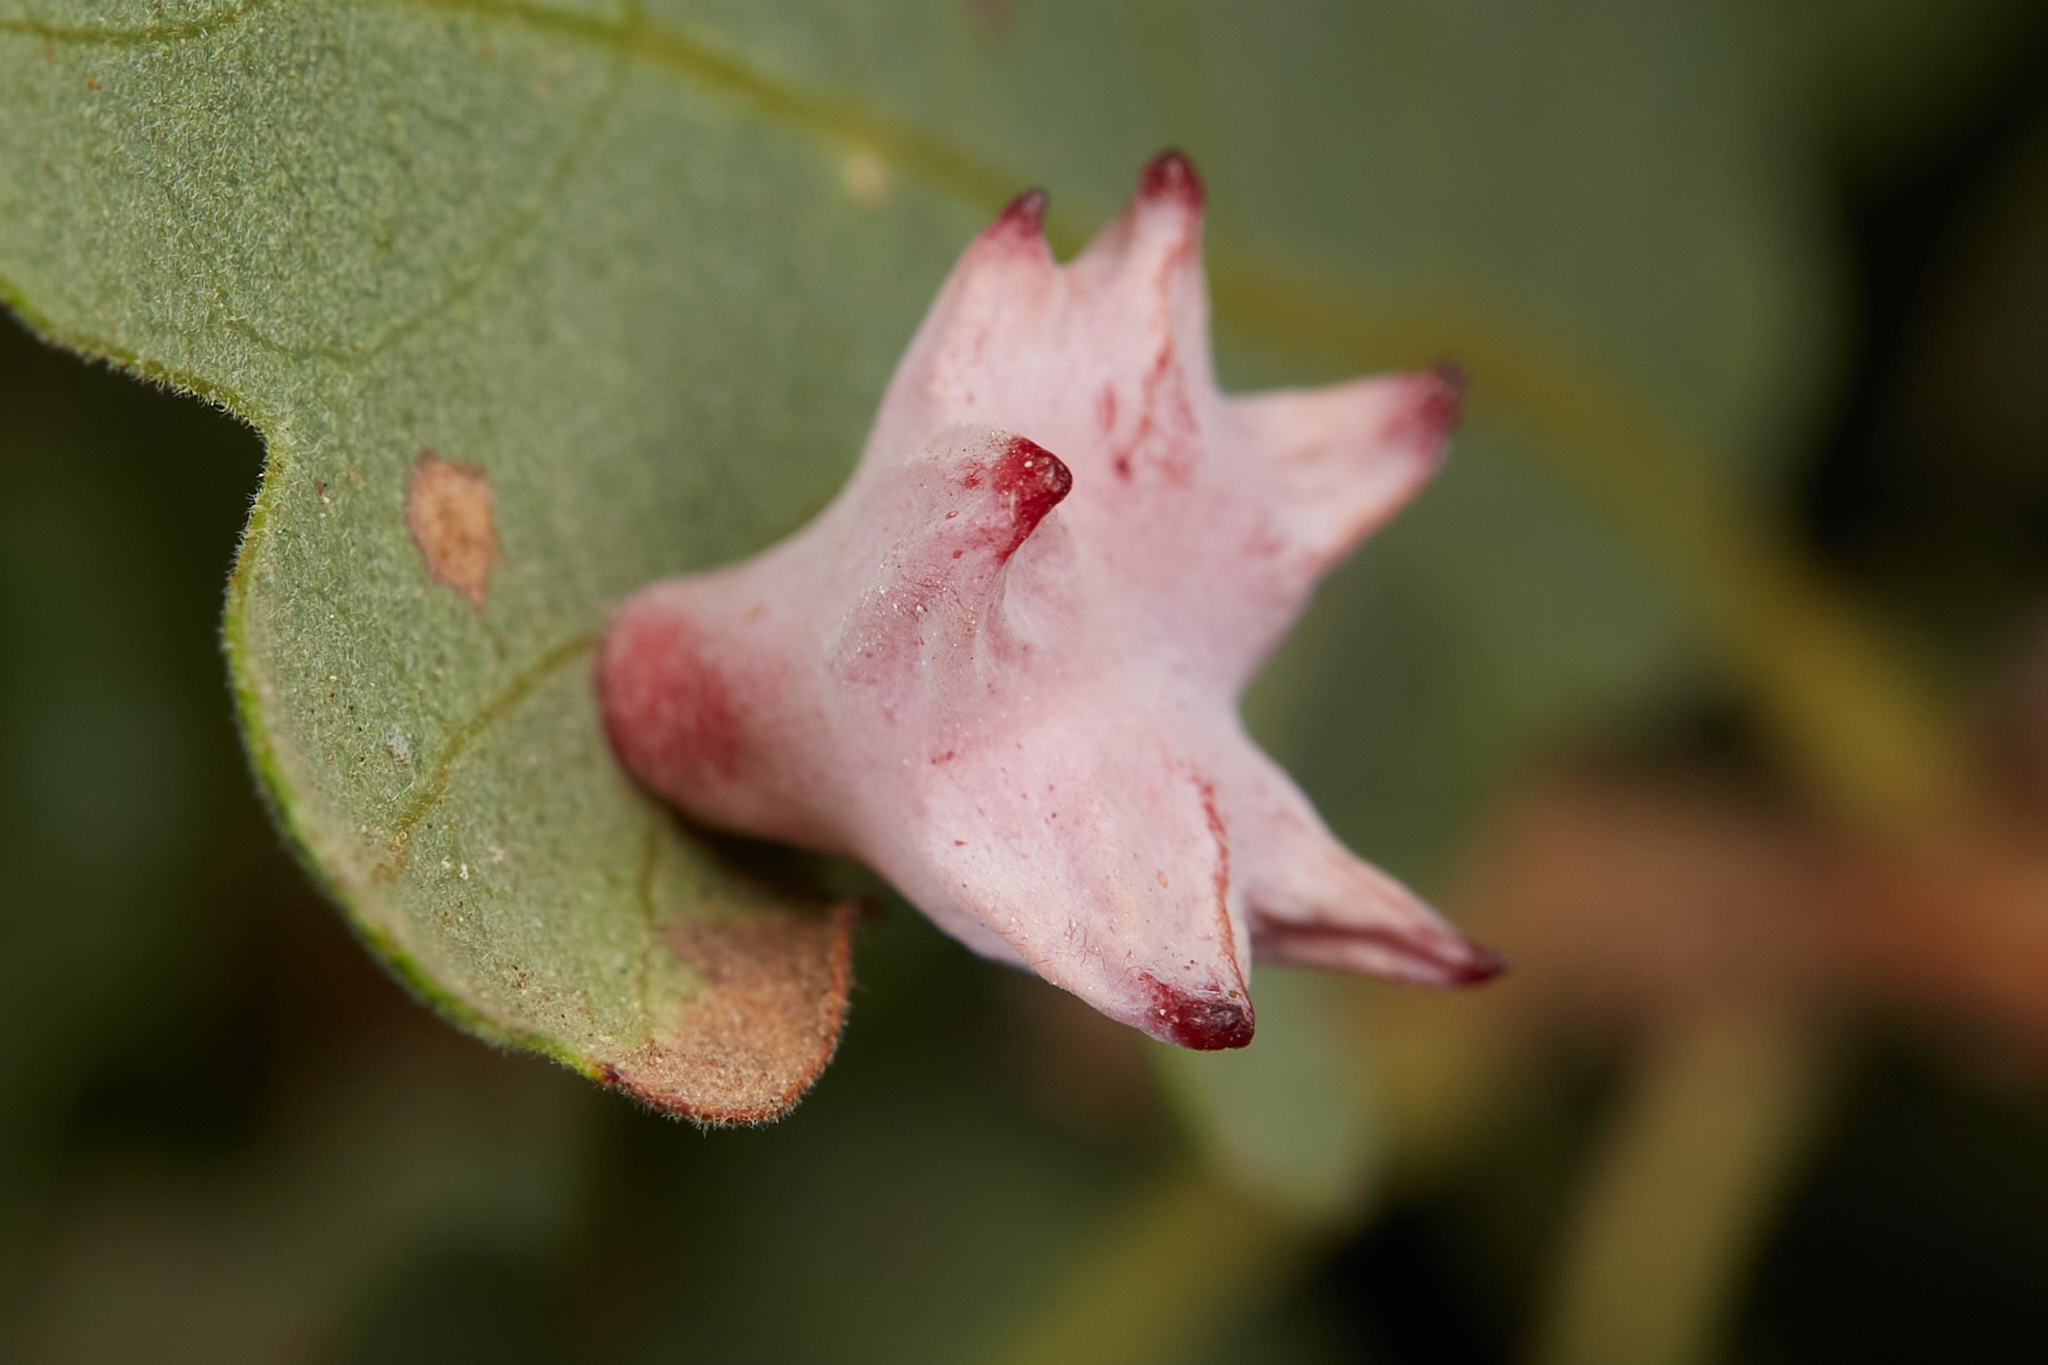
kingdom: Animalia
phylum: Arthropoda
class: Insecta
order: Hymenoptera
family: Cynipidae
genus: Cynips
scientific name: Cynips douglasi
